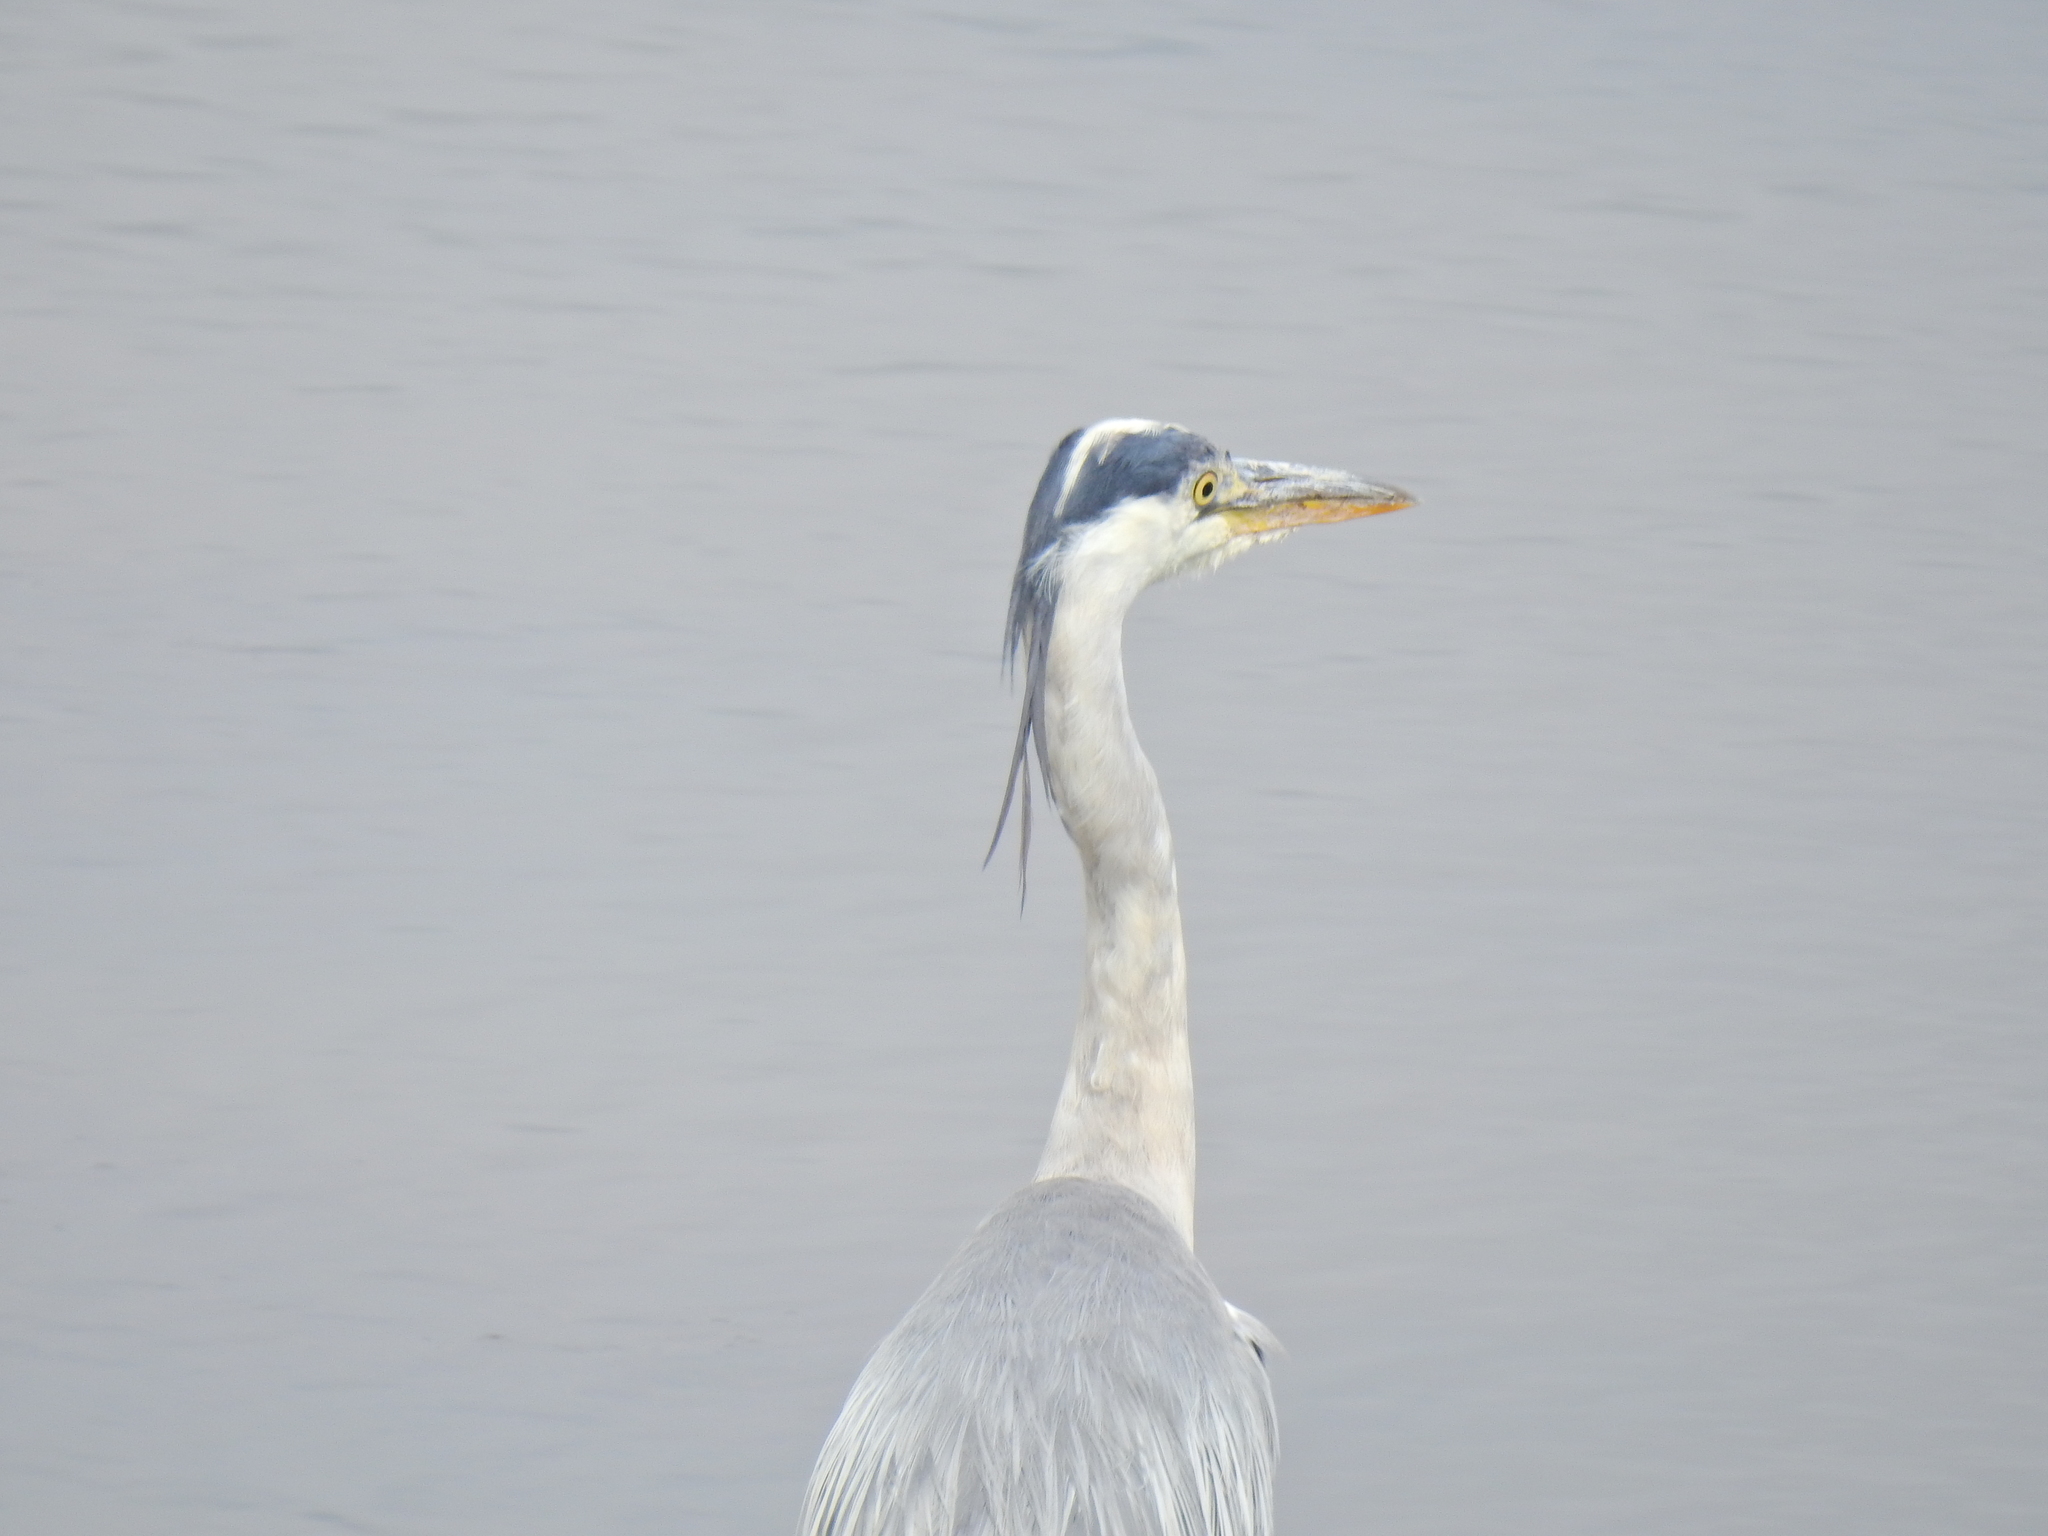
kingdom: Animalia
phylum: Chordata
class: Aves
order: Pelecaniformes
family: Ardeidae
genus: Ardea
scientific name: Ardea cinerea
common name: Grey heron
